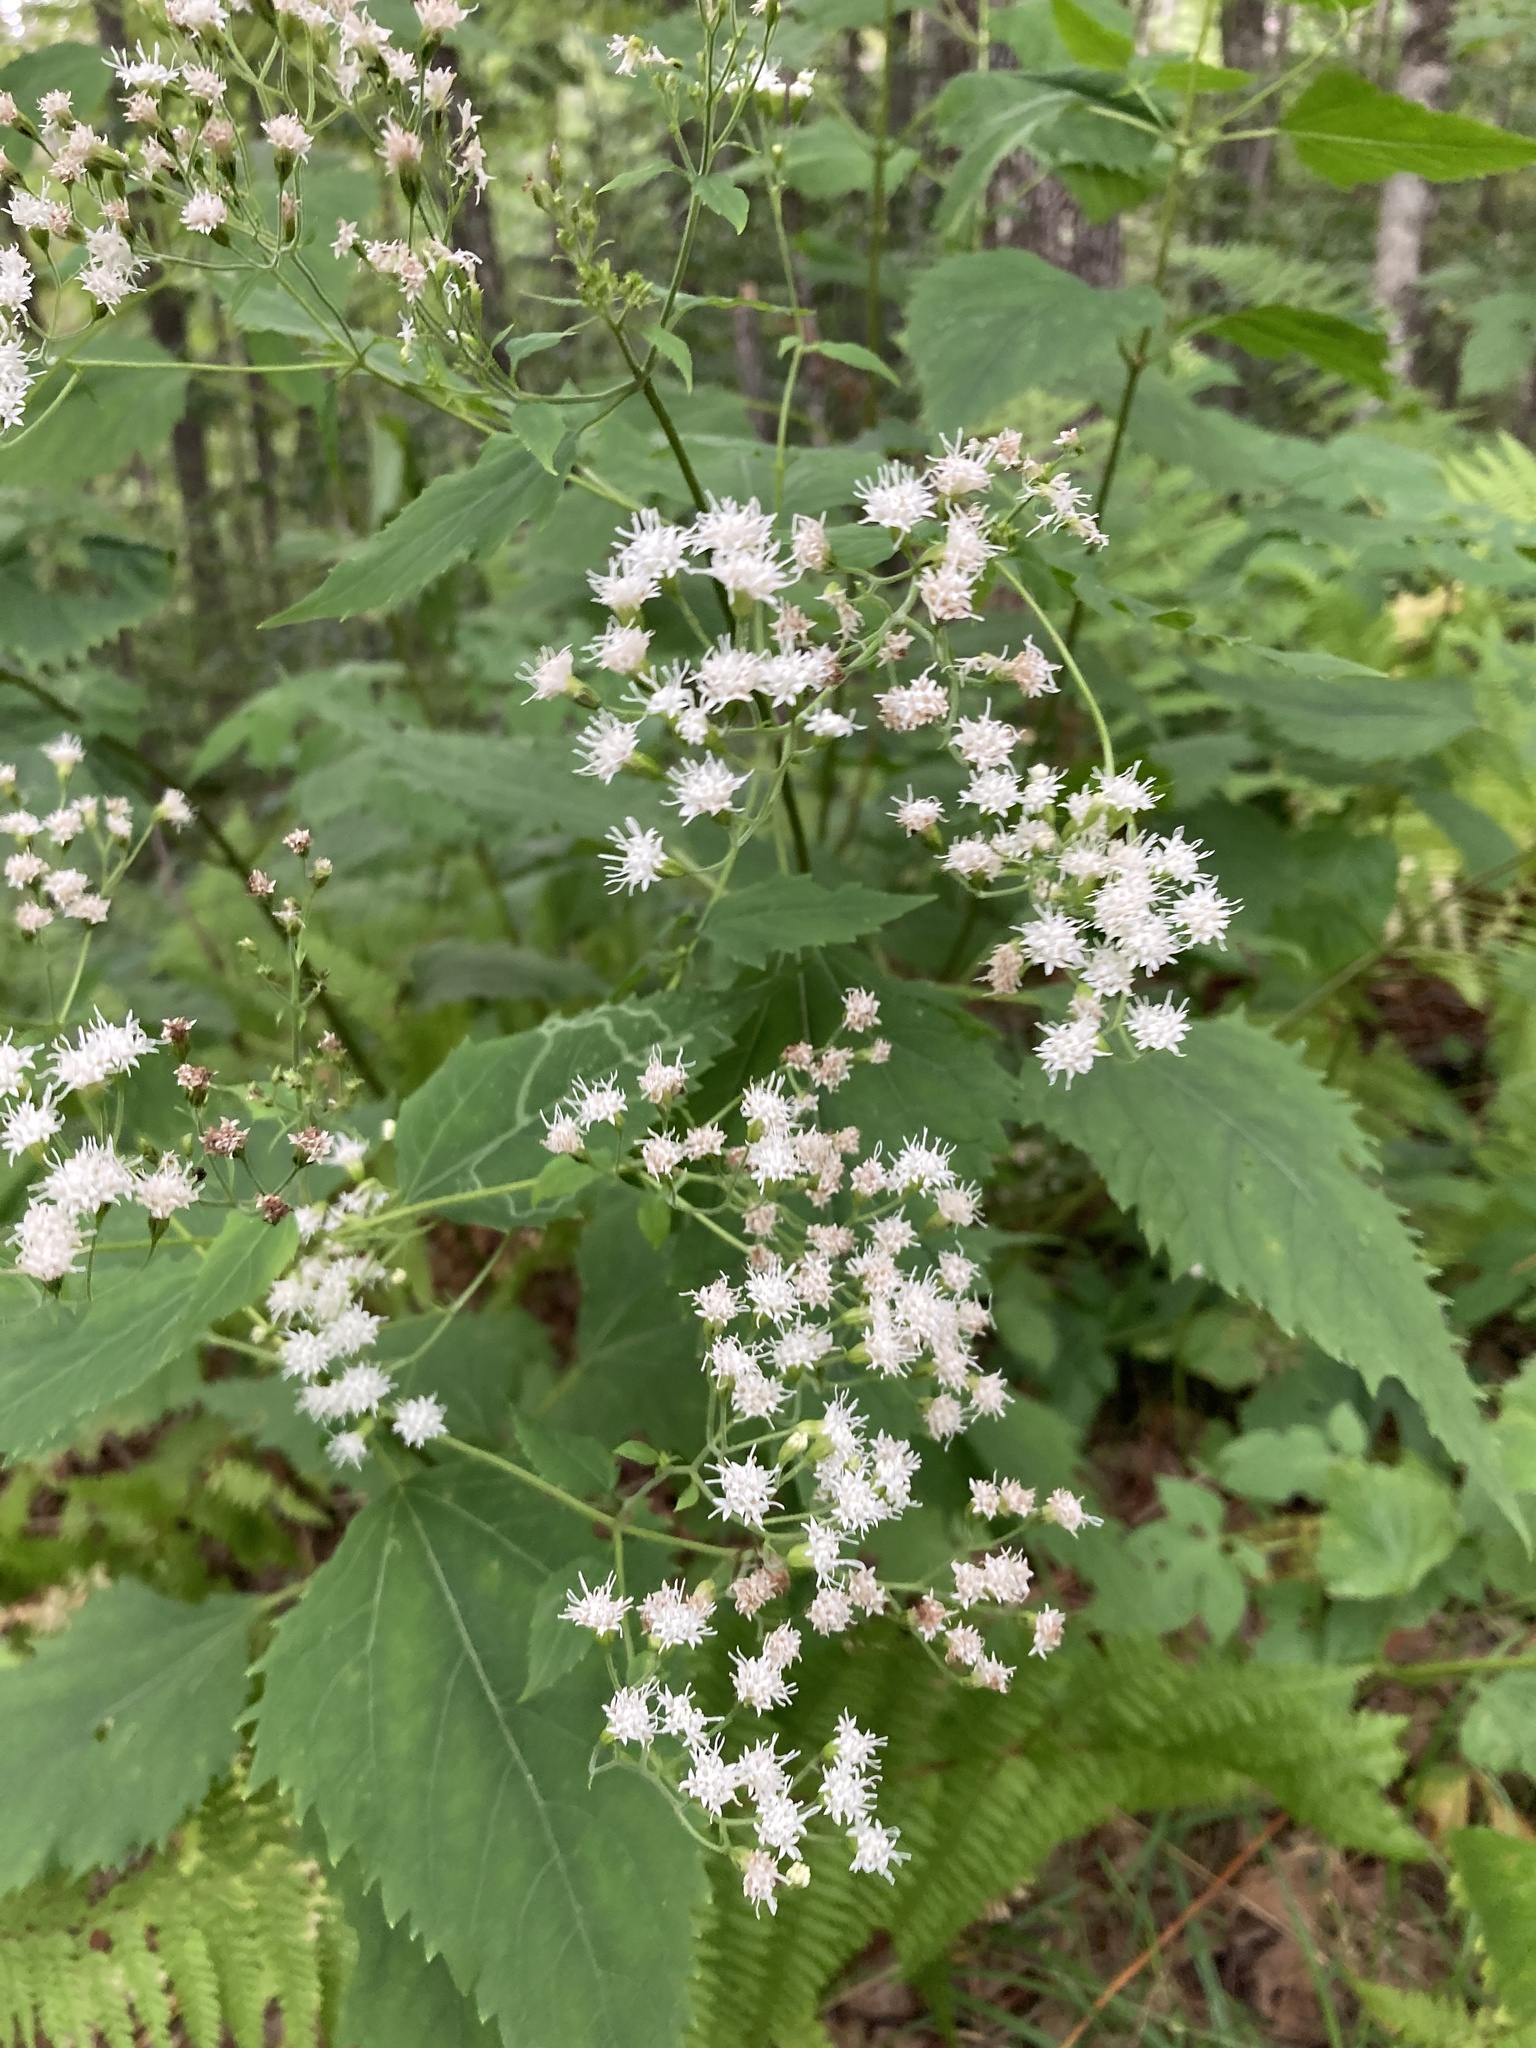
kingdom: Plantae
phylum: Tracheophyta
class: Magnoliopsida
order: Asterales
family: Asteraceae
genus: Ageratina
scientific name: Ageratina altissima
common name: White snakeroot
